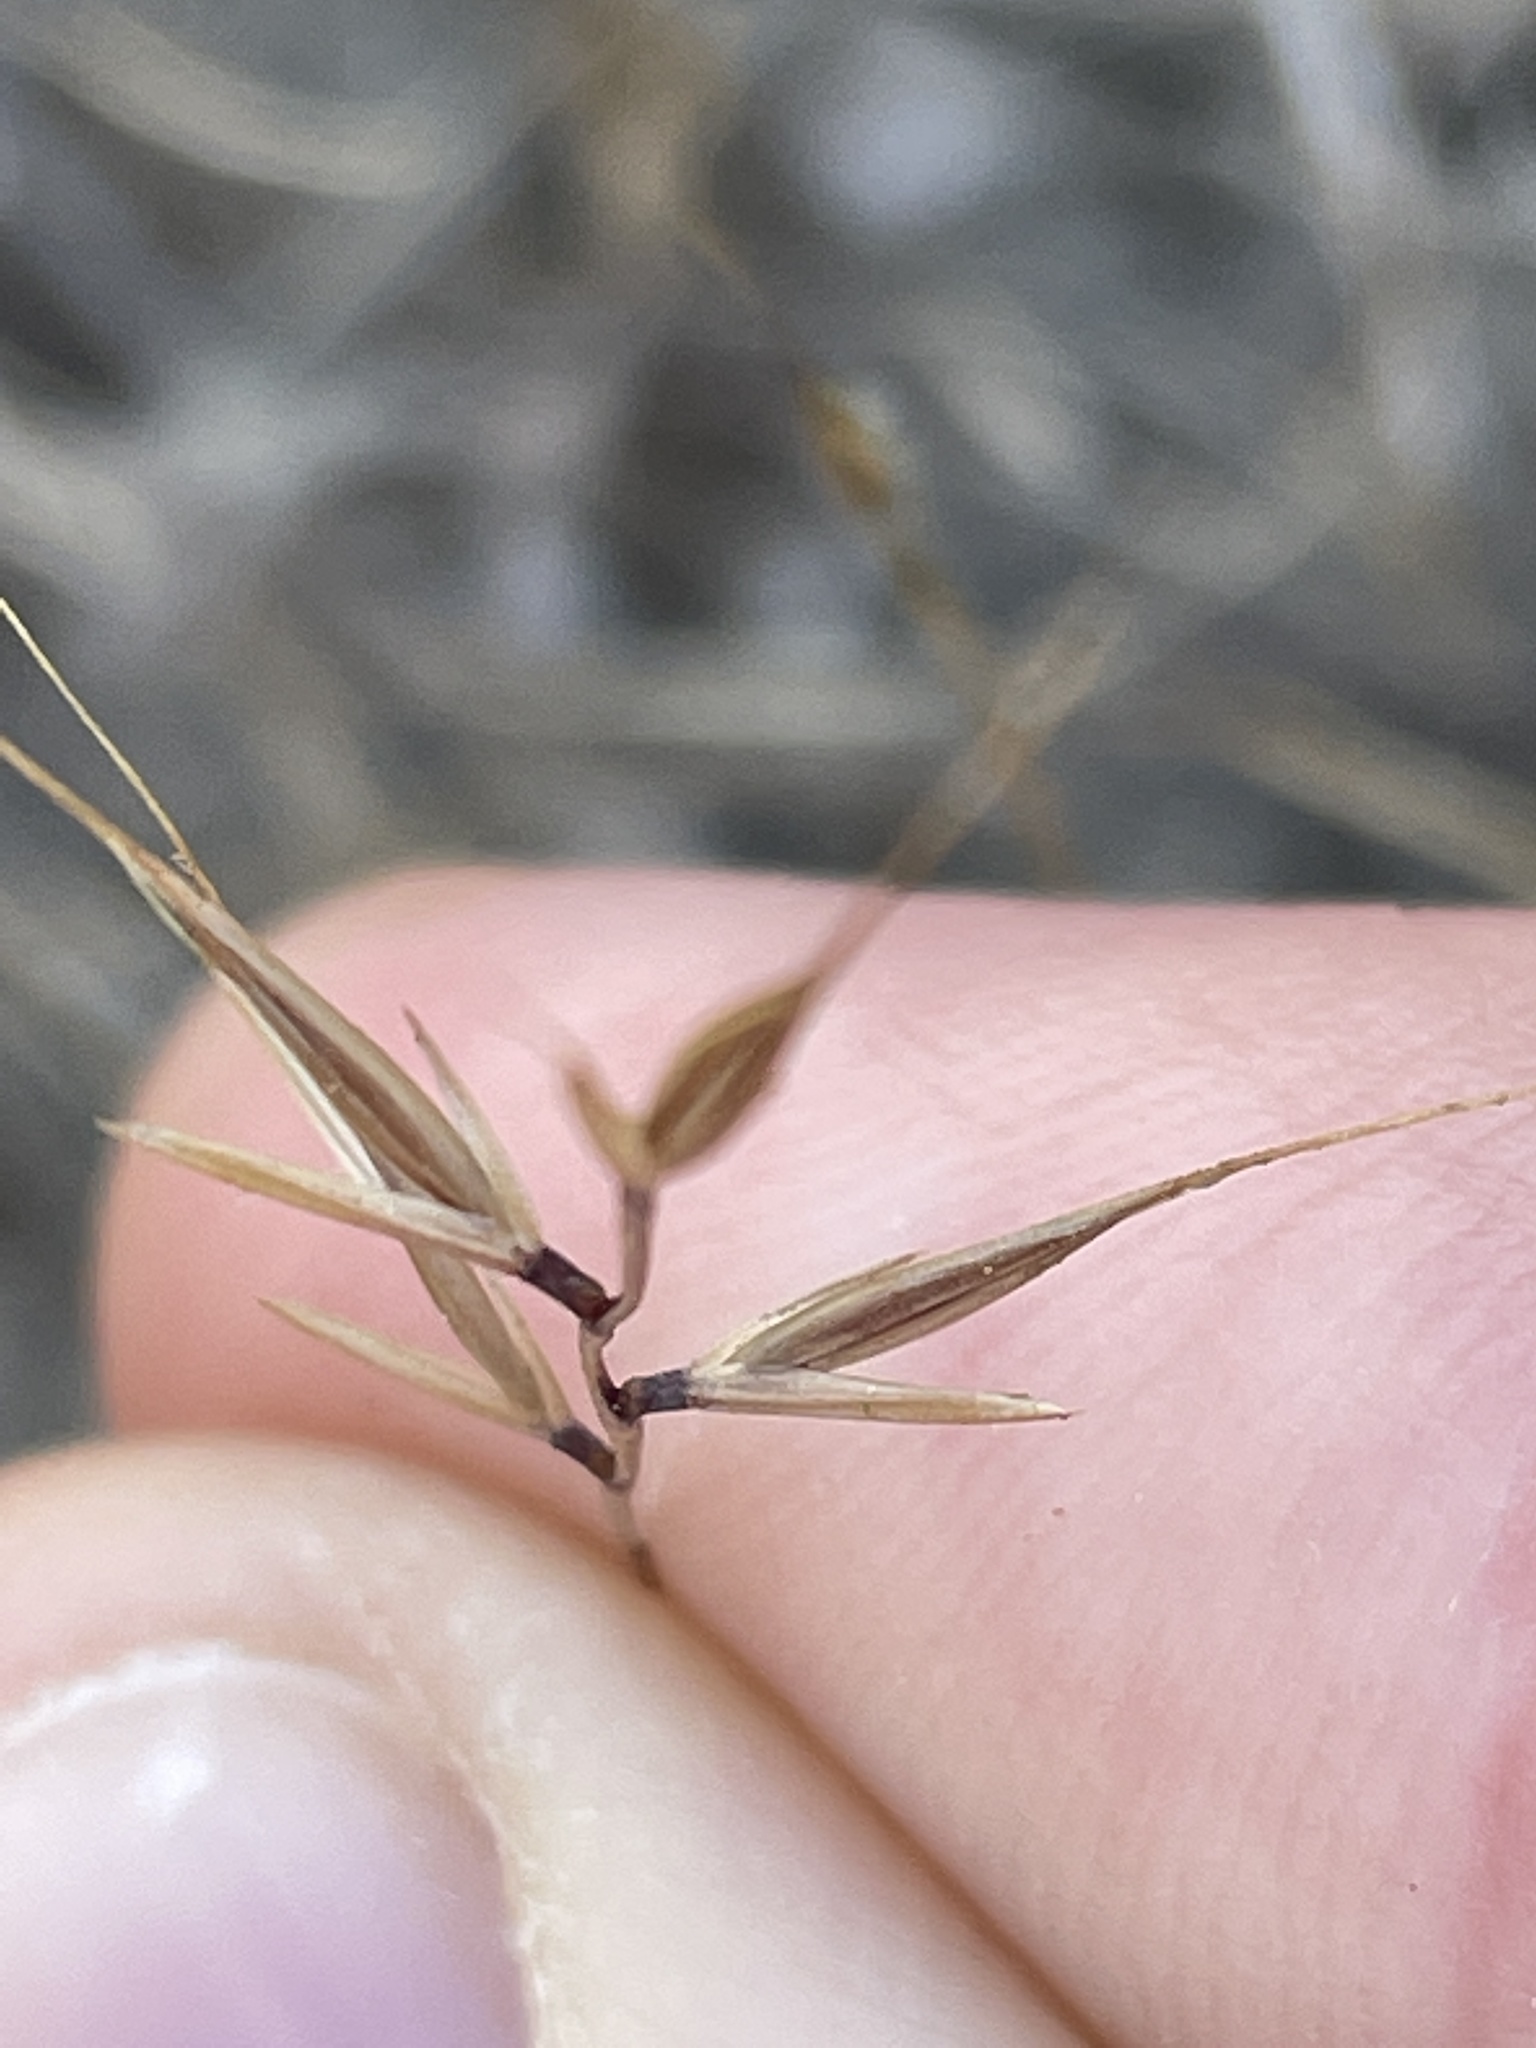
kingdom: Plantae
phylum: Tracheophyta
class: Liliopsida
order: Poales
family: Poaceae
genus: Festuca
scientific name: Festuca microstachys
